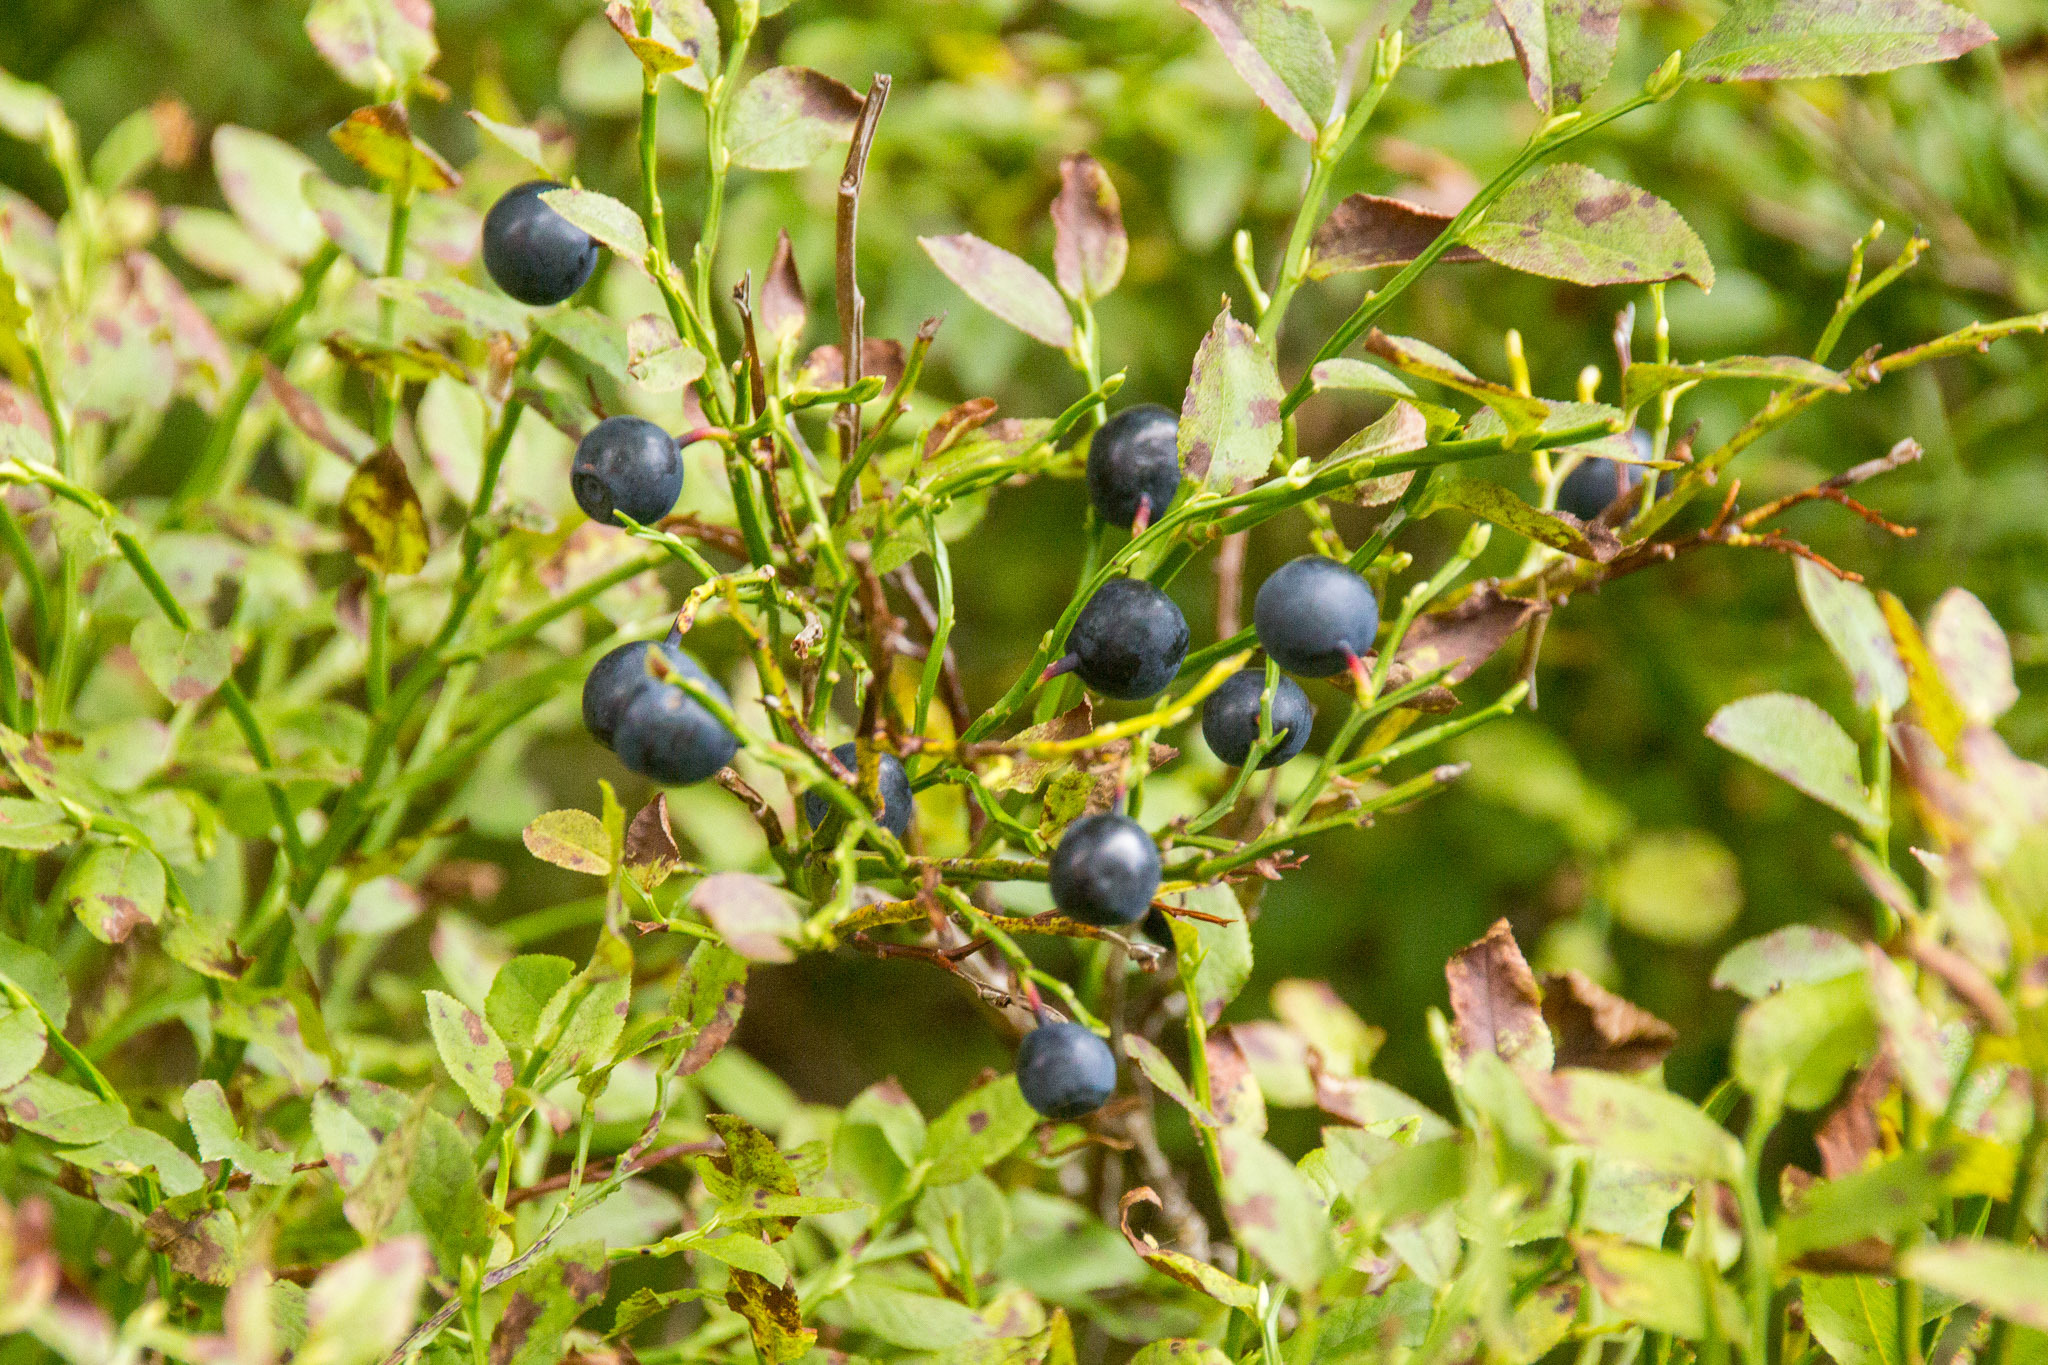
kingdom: Plantae
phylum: Tracheophyta
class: Magnoliopsida
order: Ericales
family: Ericaceae
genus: Vaccinium
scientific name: Vaccinium myrtillus
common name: Bilberry
